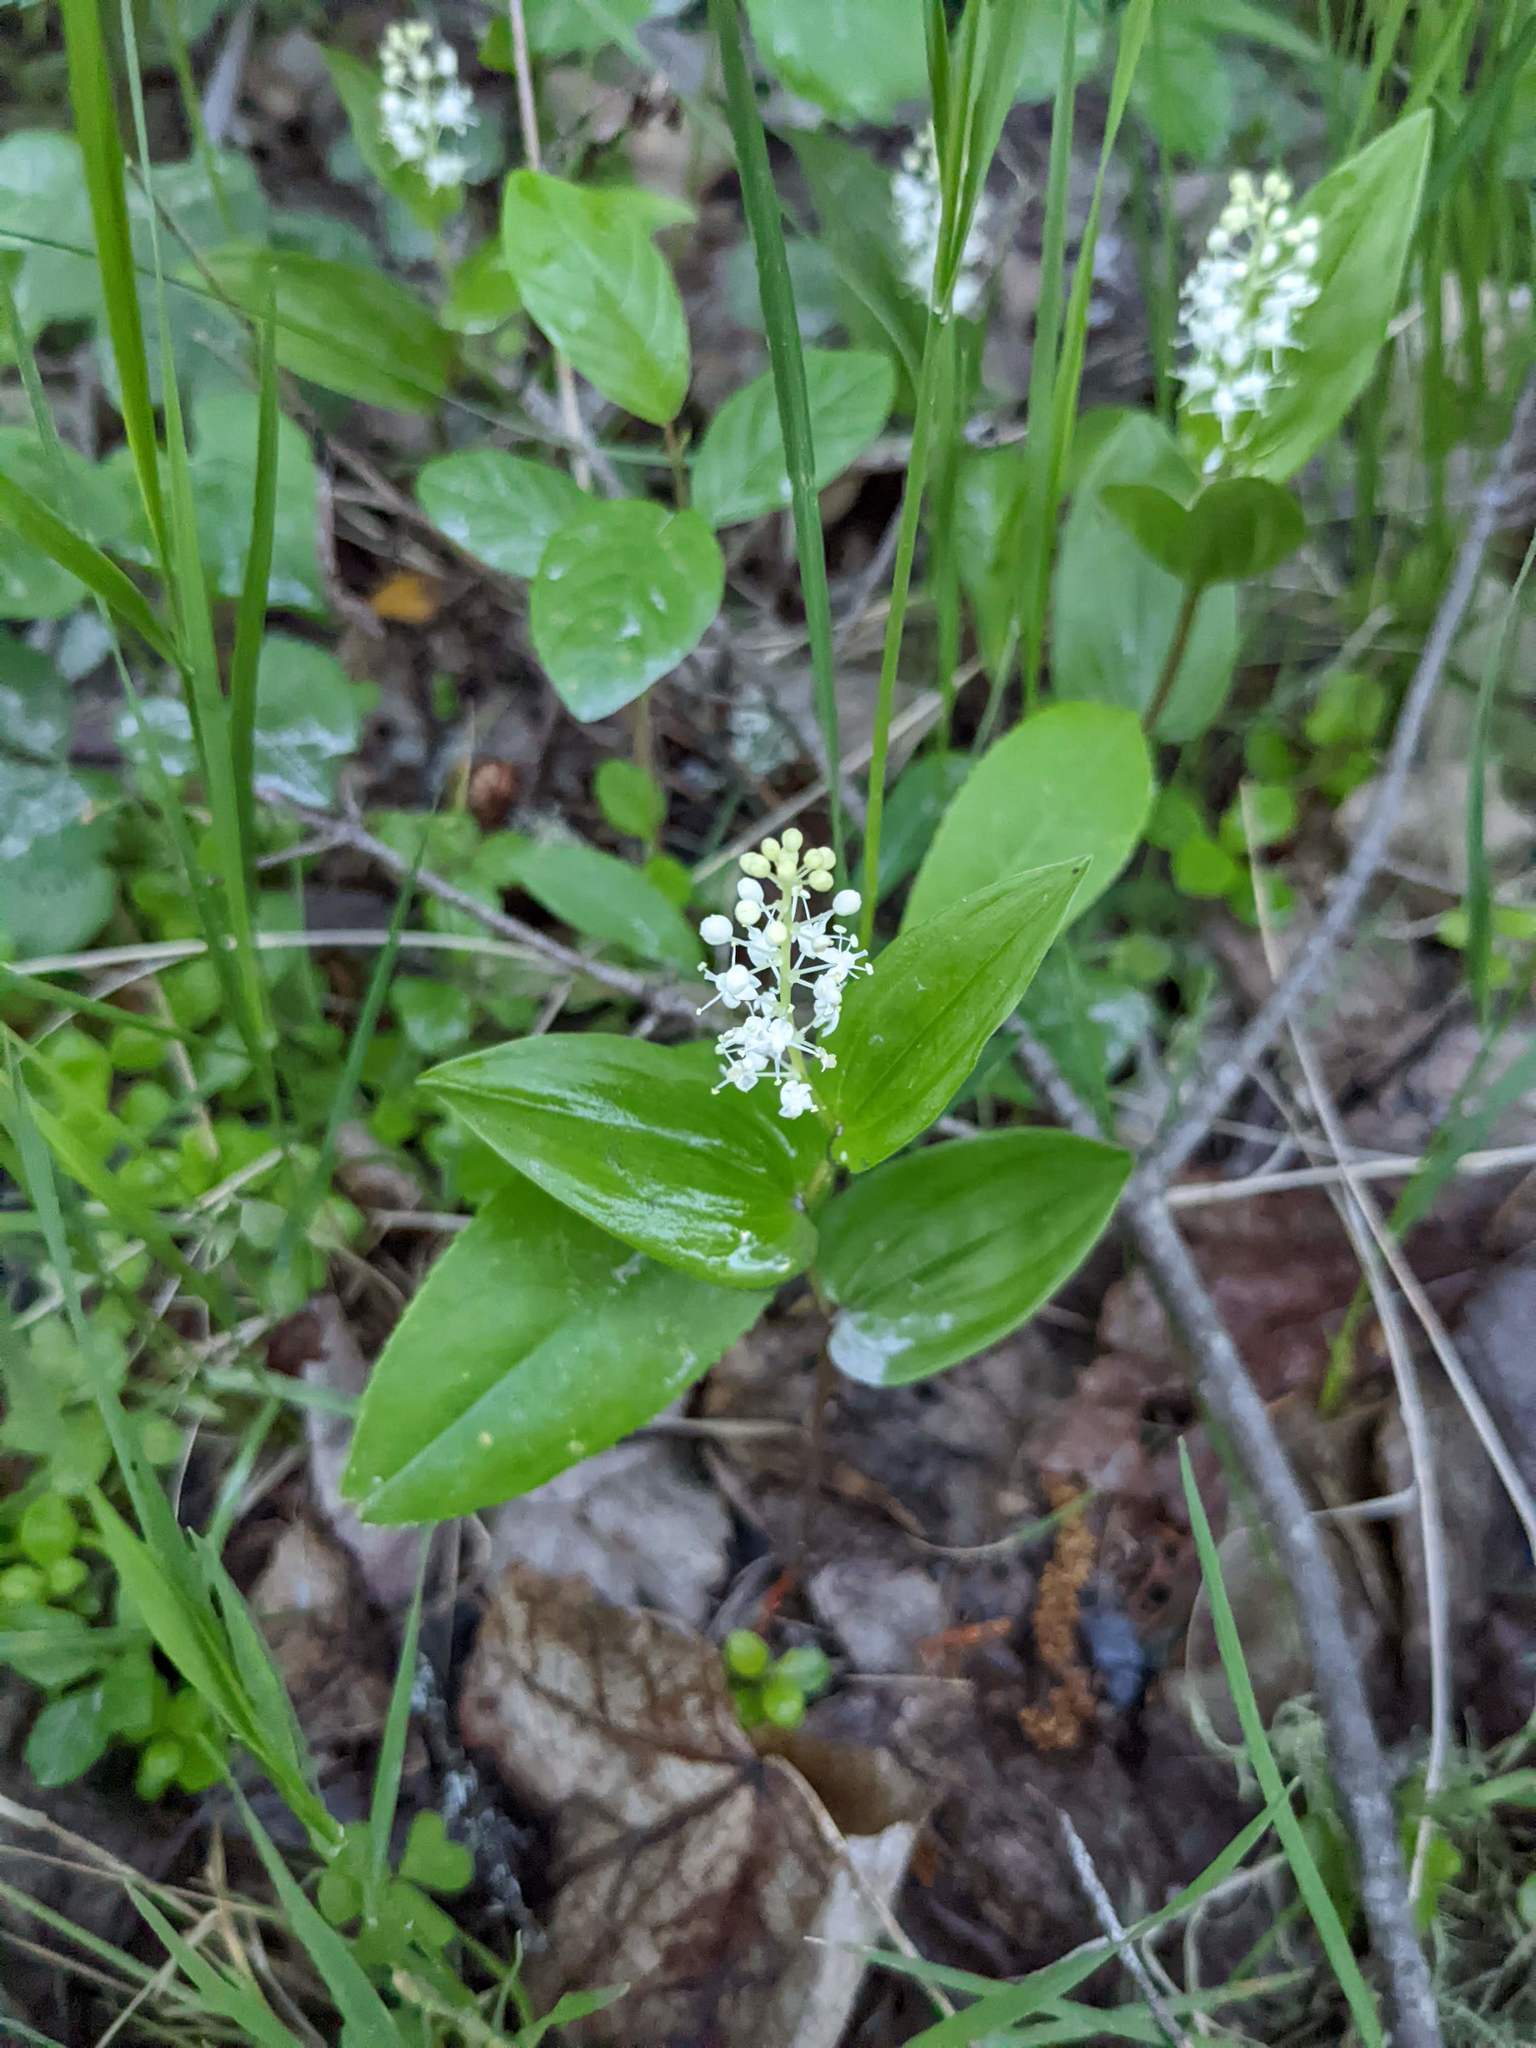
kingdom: Plantae
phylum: Tracheophyta
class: Liliopsida
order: Asparagales
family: Asparagaceae
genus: Maianthemum
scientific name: Maianthemum canadense
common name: False lily-of-the-valley
